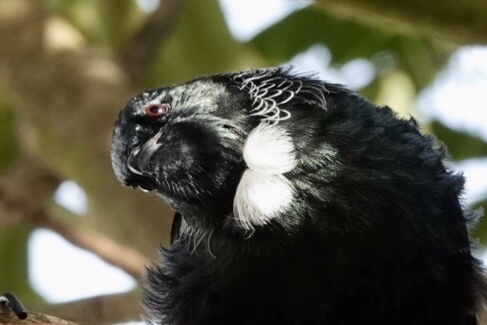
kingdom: Animalia
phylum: Chordata
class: Aves
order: Passeriformes
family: Meliphagidae
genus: Prosthemadera
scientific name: Prosthemadera novaeseelandiae
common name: Tui
